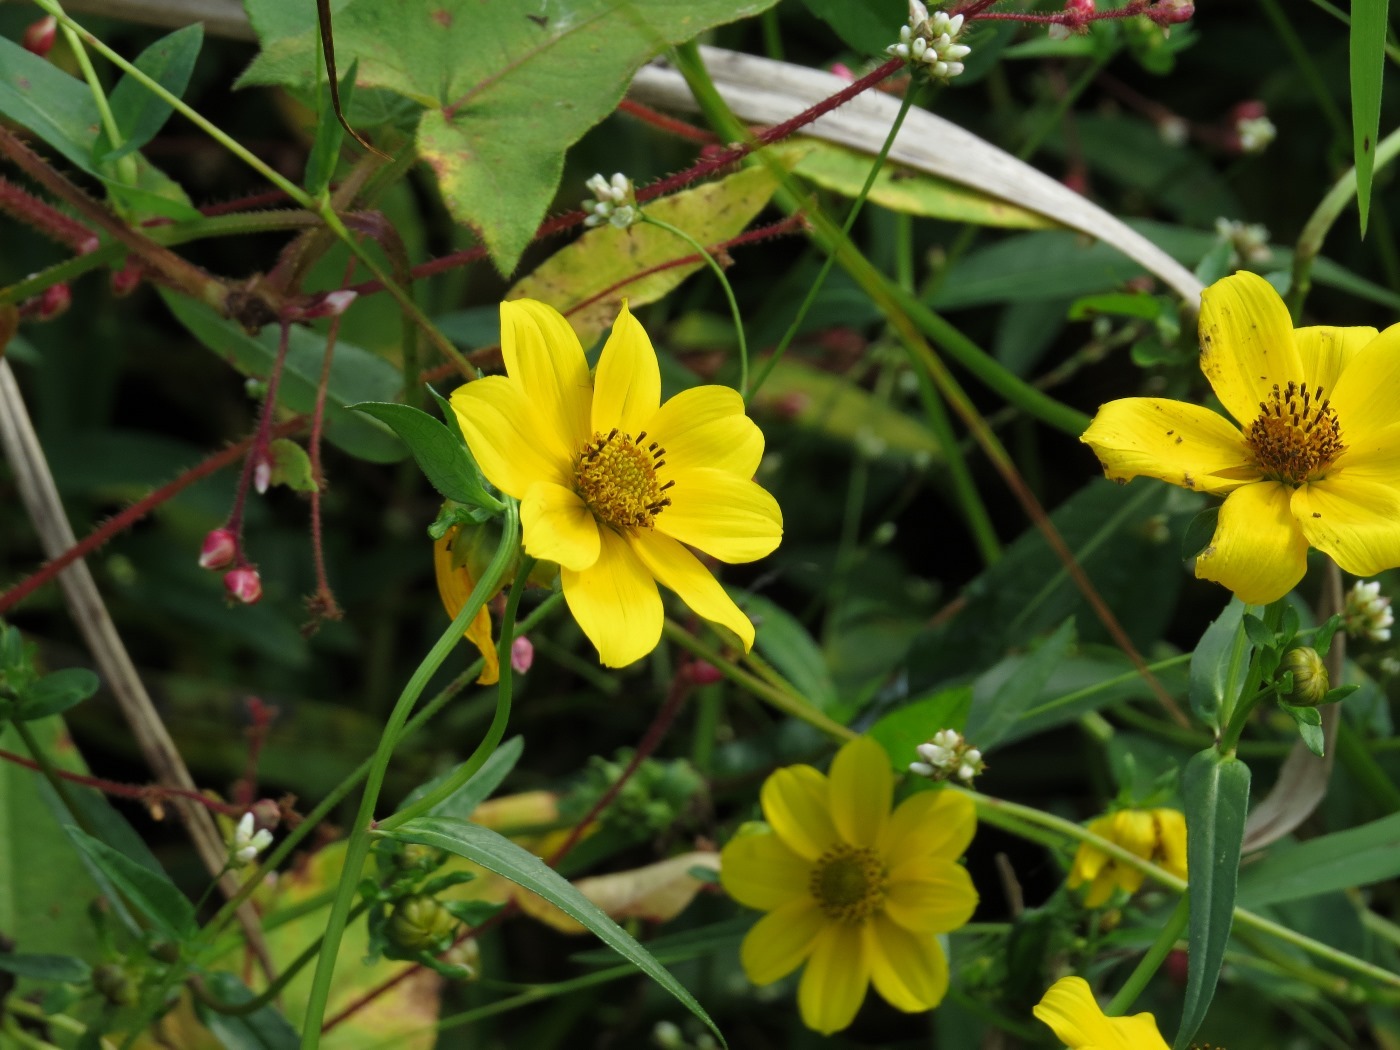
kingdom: Plantae
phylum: Tracheophyta
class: Magnoliopsida
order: Asterales
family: Asteraceae
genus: Bidens
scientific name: Bidens laevis
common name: Larger bur-marigold
